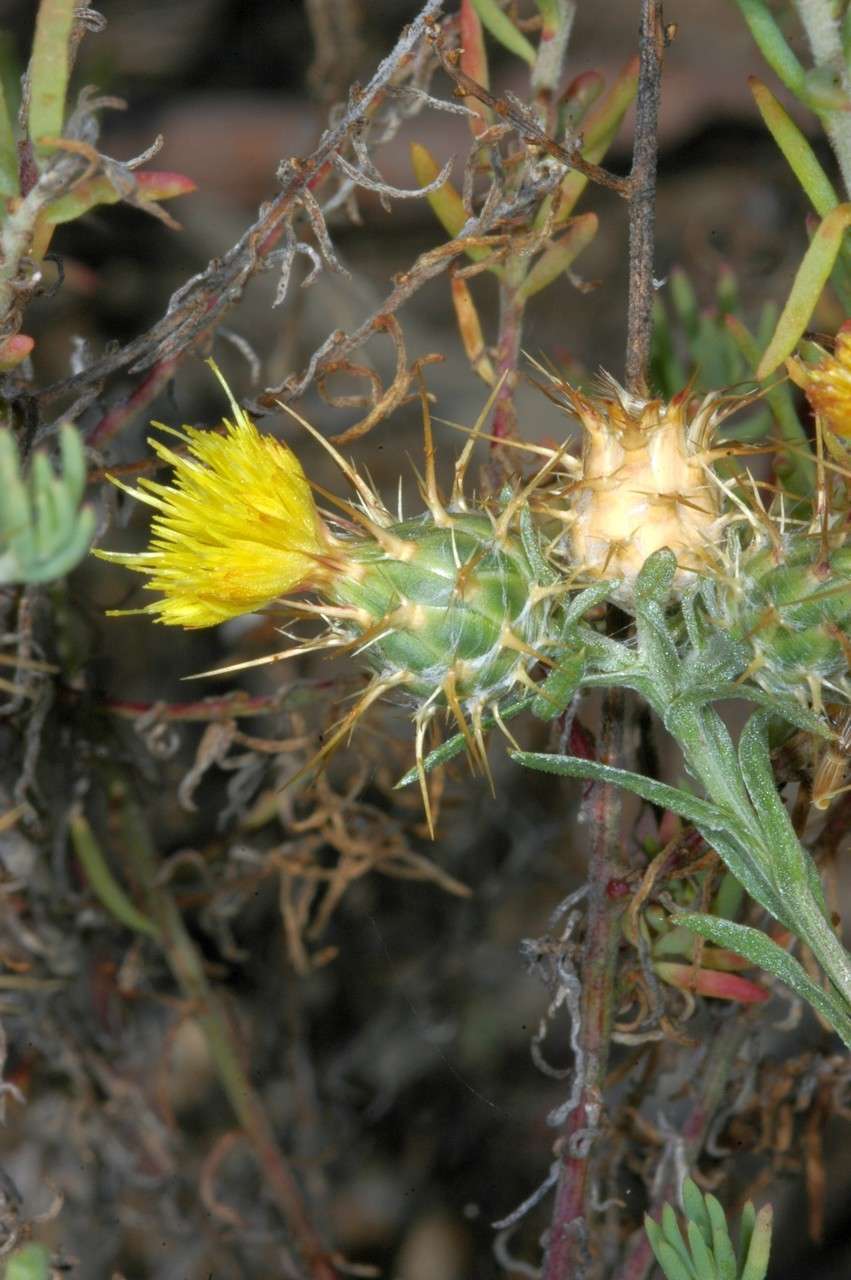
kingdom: Plantae
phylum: Tracheophyta
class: Magnoliopsida
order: Asterales
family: Asteraceae
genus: Centaurea
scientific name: Centaurea melitensis
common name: Maltese star-thistle
